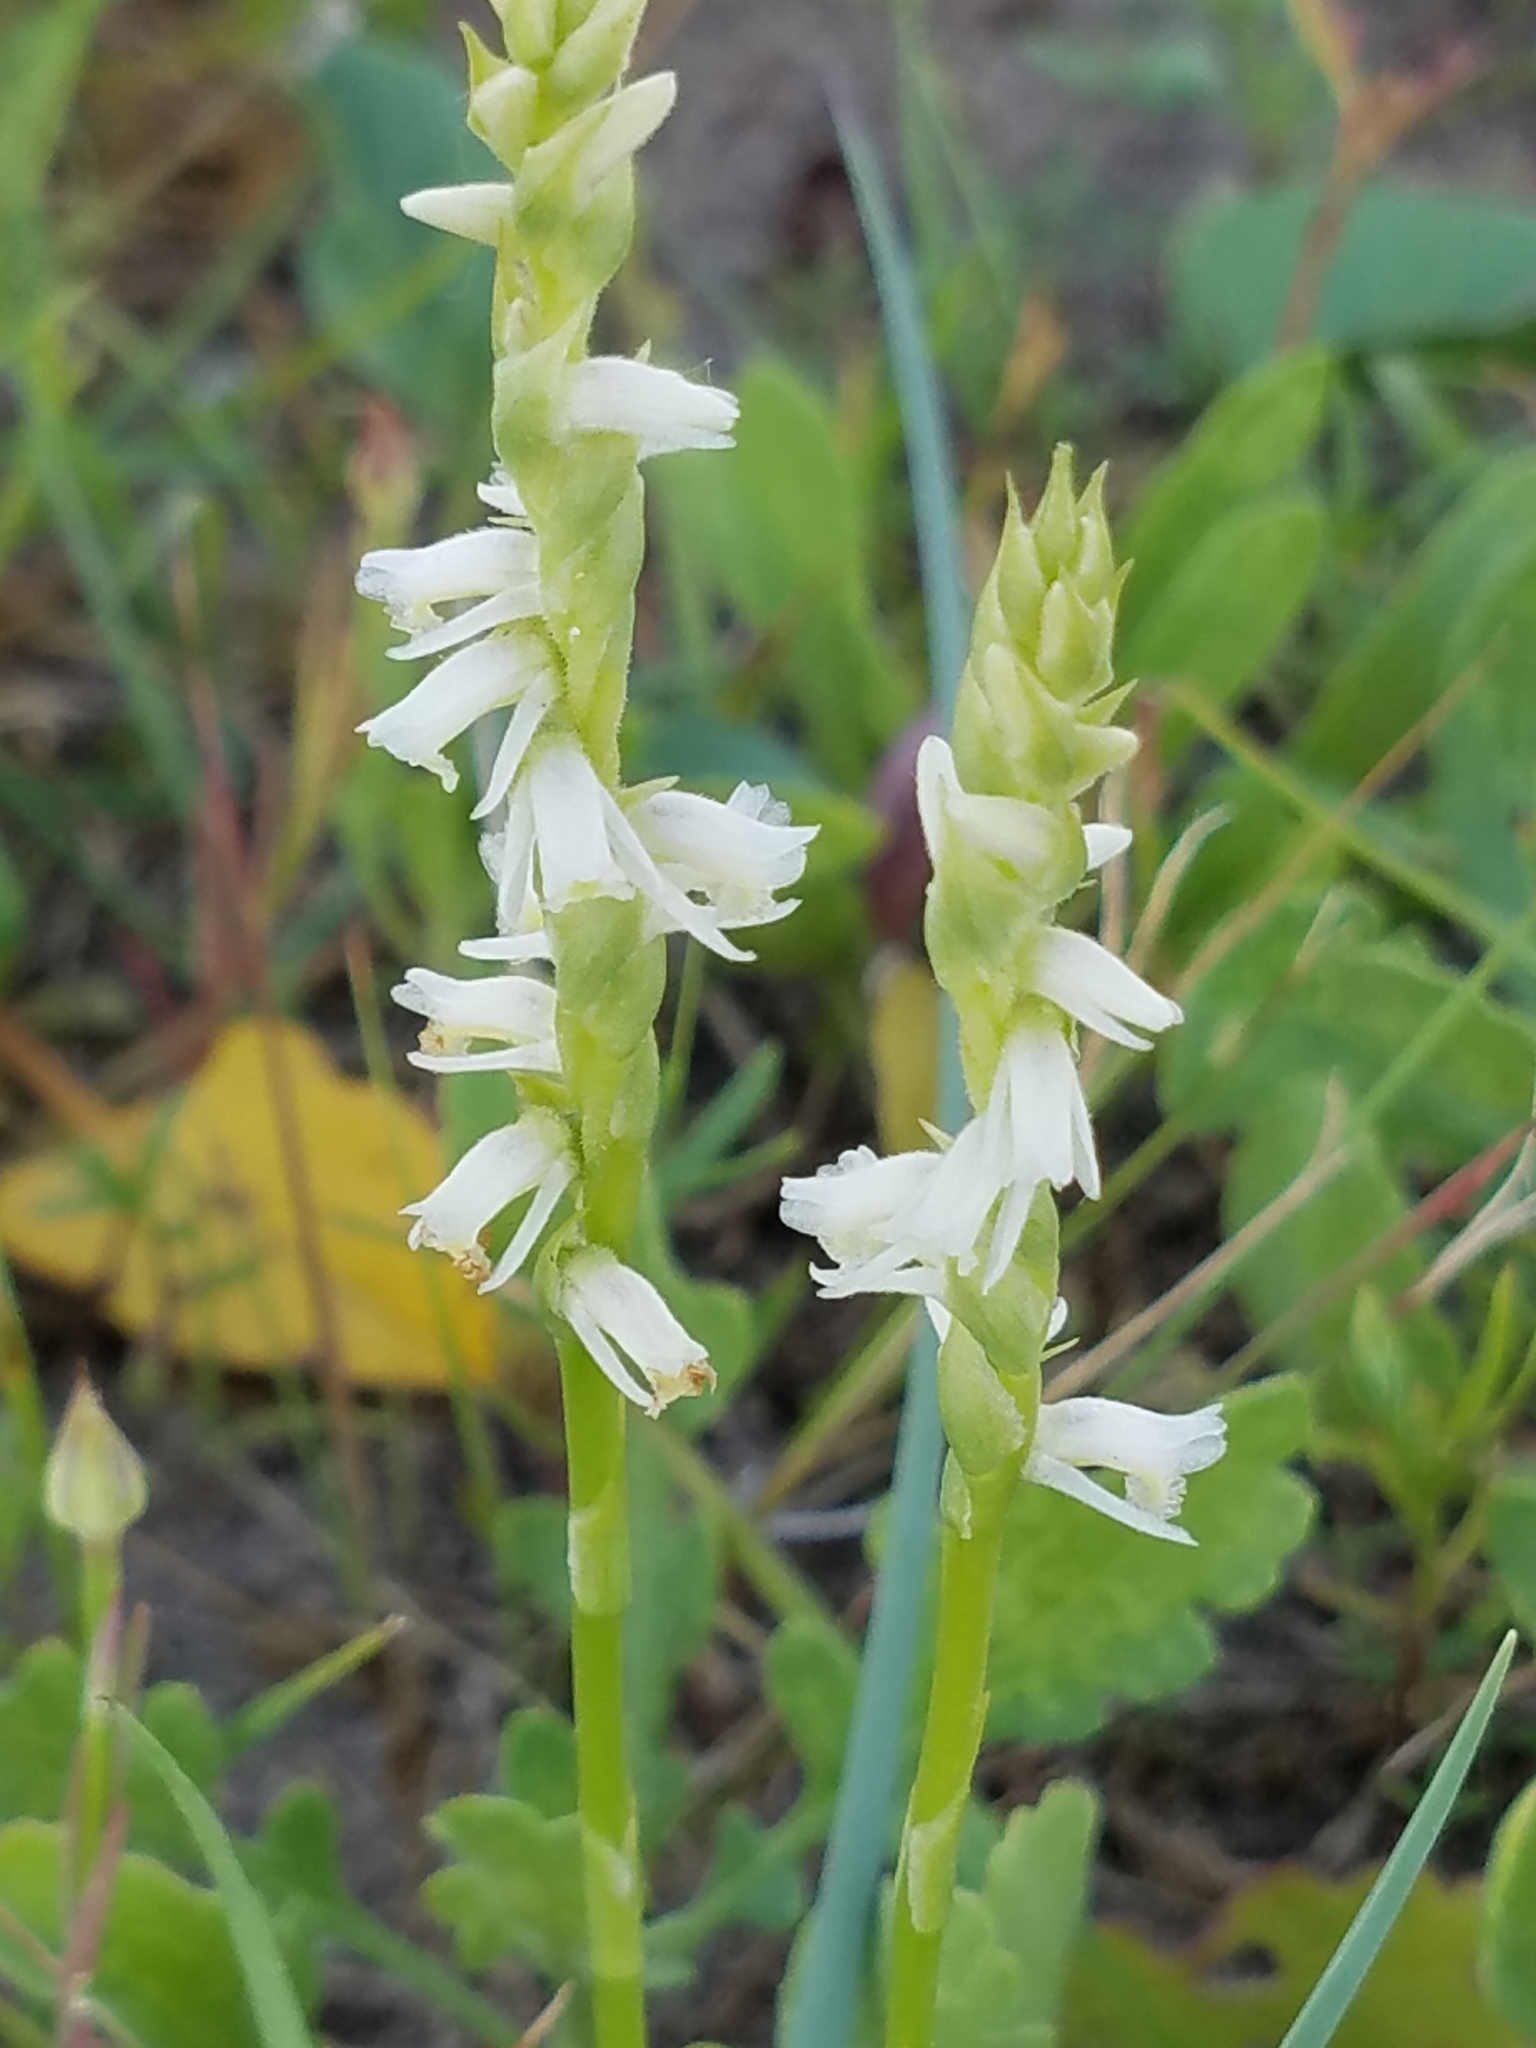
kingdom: Plantae
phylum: Tracheophyta
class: Liliopsida
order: Asparagales
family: Orchidaceae
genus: Spiranthes
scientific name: Spiranthes vernalis
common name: Spring ladies'-tresses
